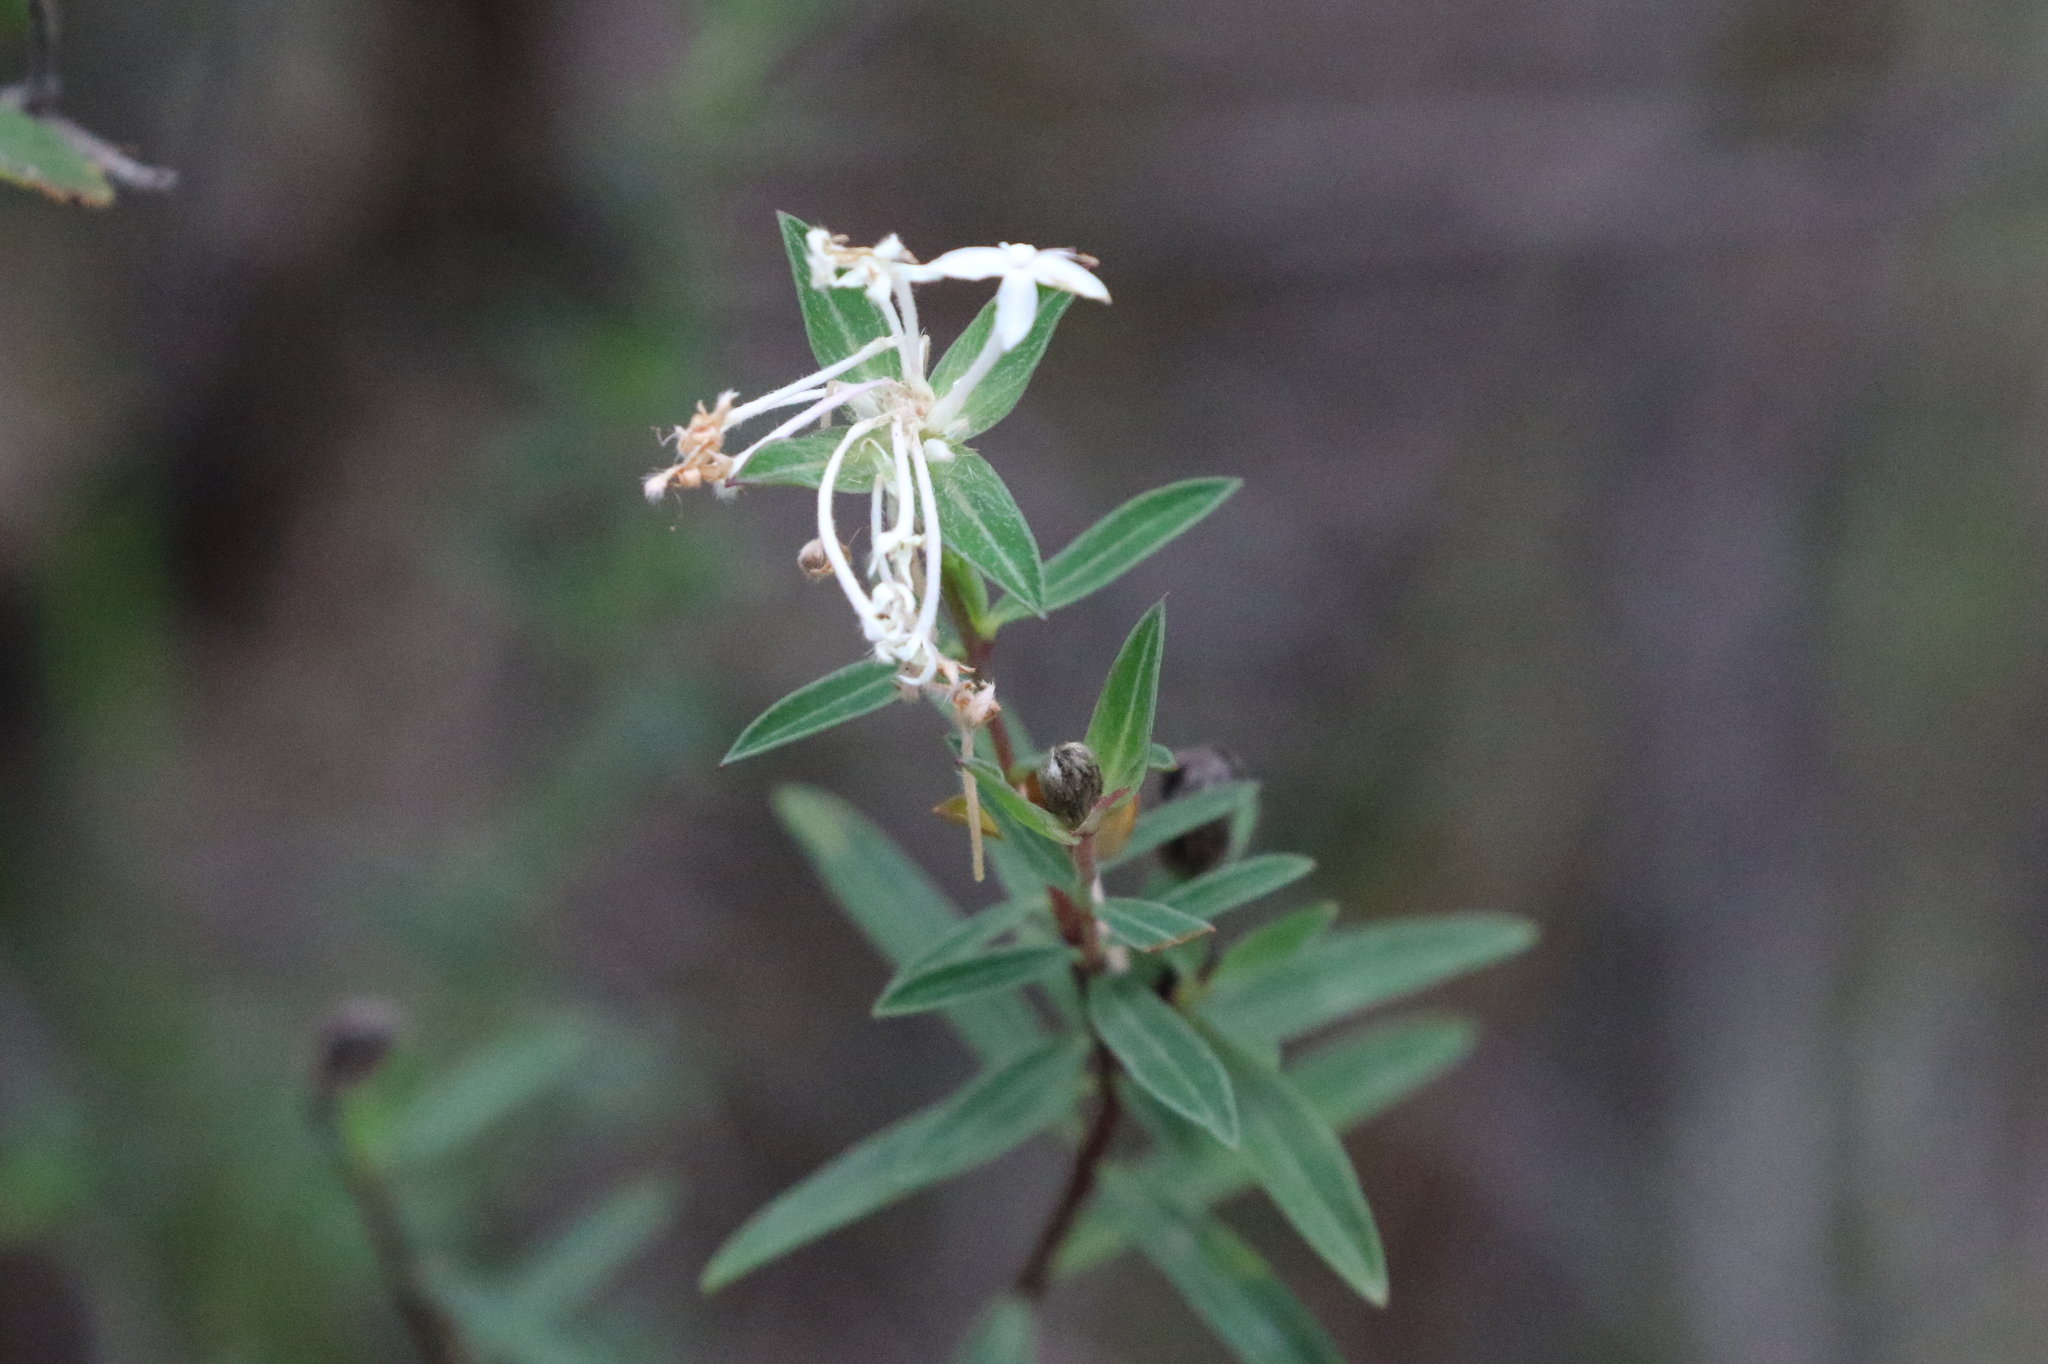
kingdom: Plantae
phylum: Tracheophyta
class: Magnoliopsida
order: Malvales
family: Thymelaeaceae
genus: Pimelea
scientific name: Pimelea linifolia
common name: Queen-of-the-bush
